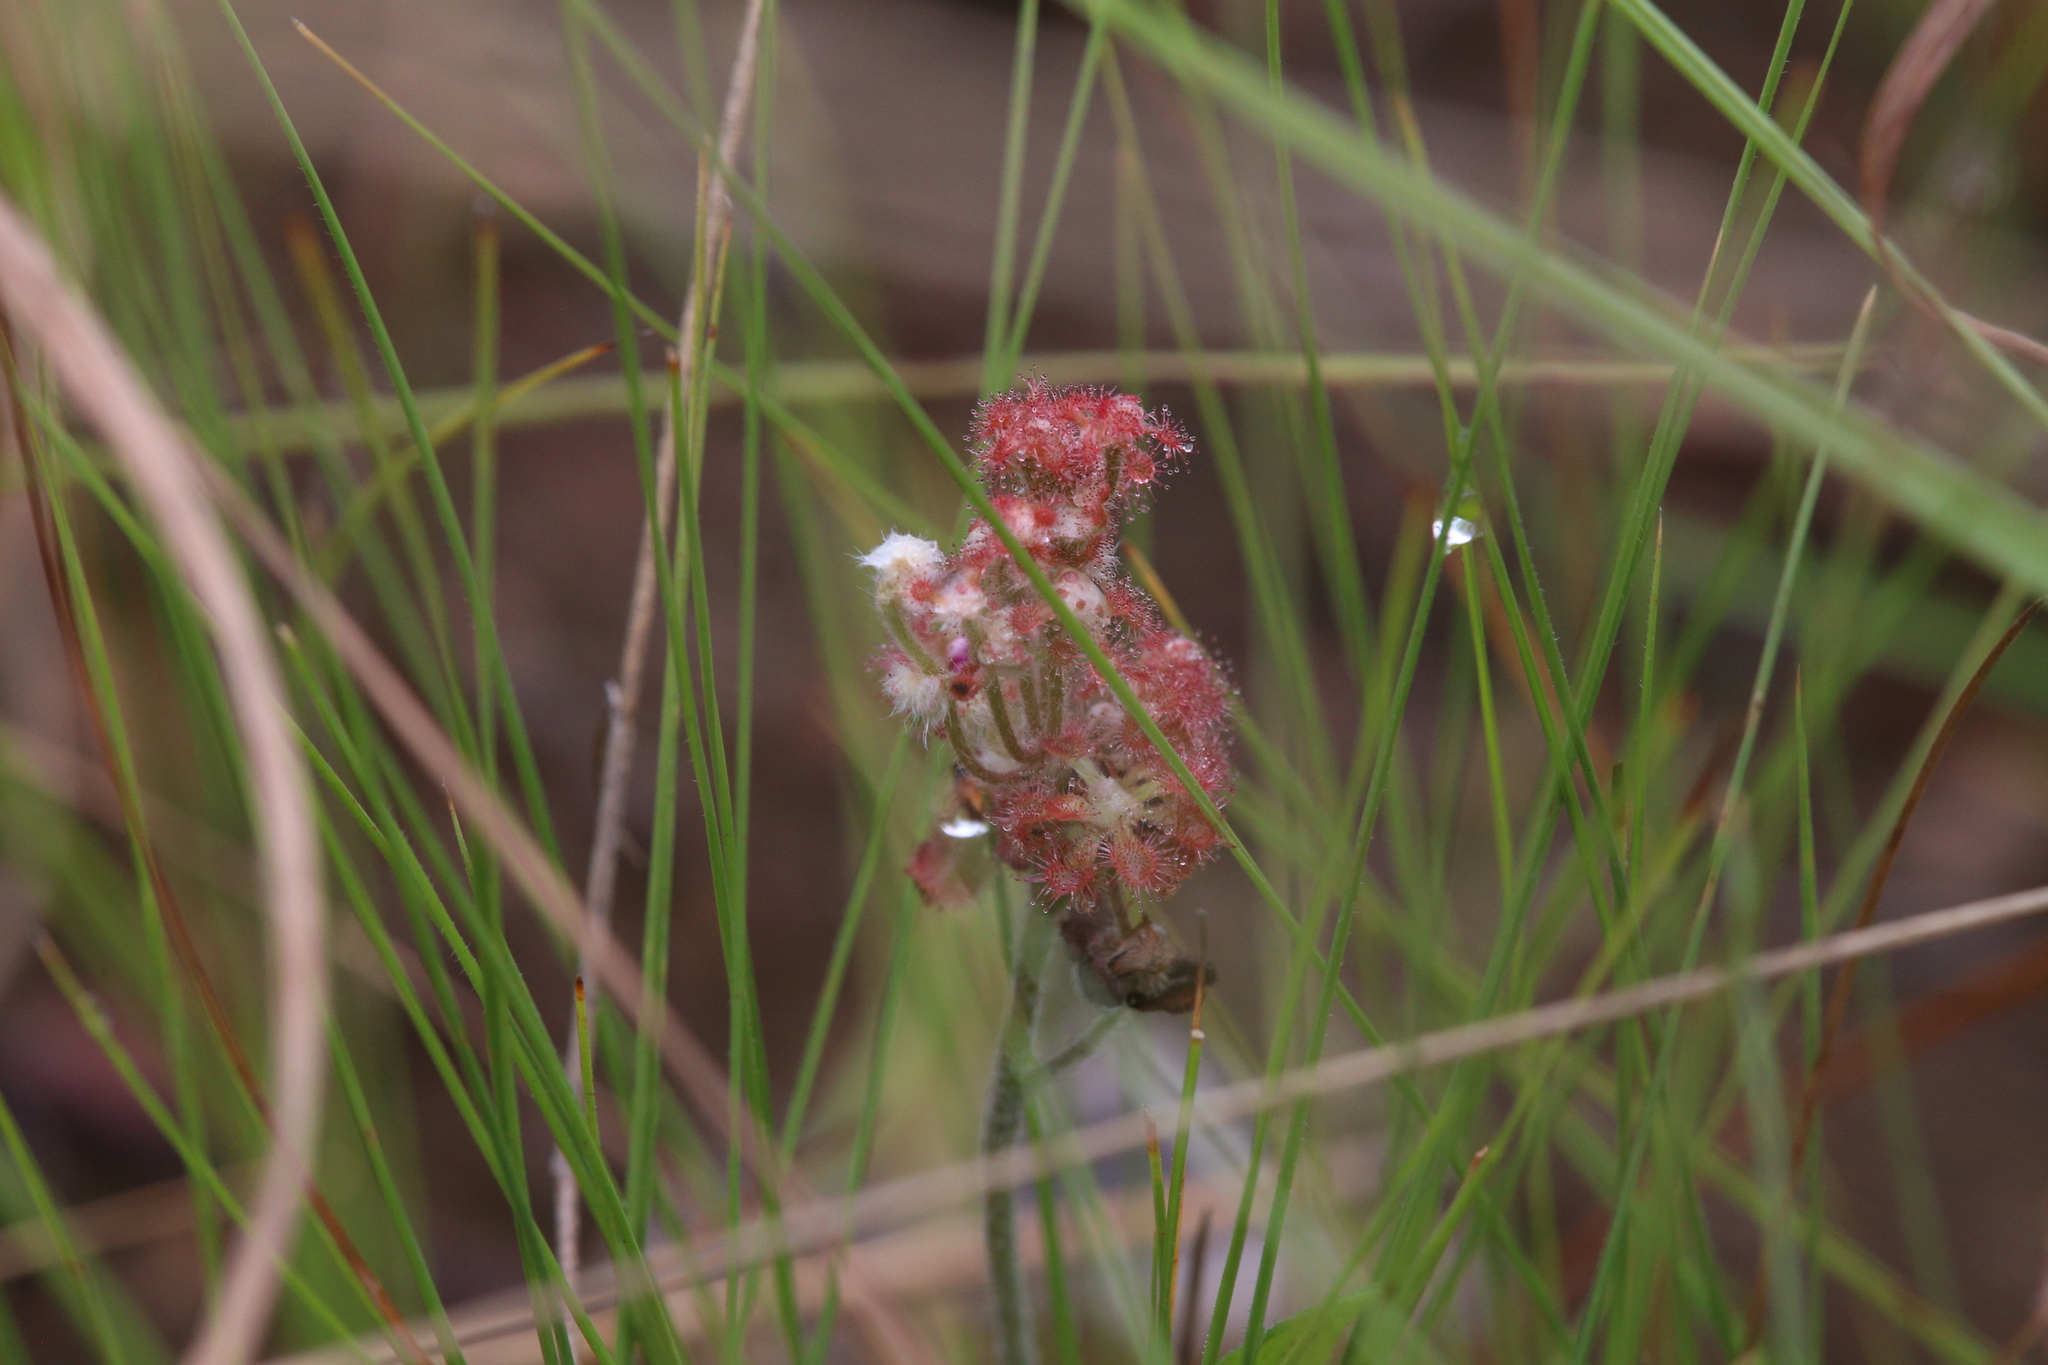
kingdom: Plantae
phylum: Tracheophyta
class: Magnoliopsida
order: Caryophyllales
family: Droseraceae
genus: Drosera
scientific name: Drosera brevicornis
